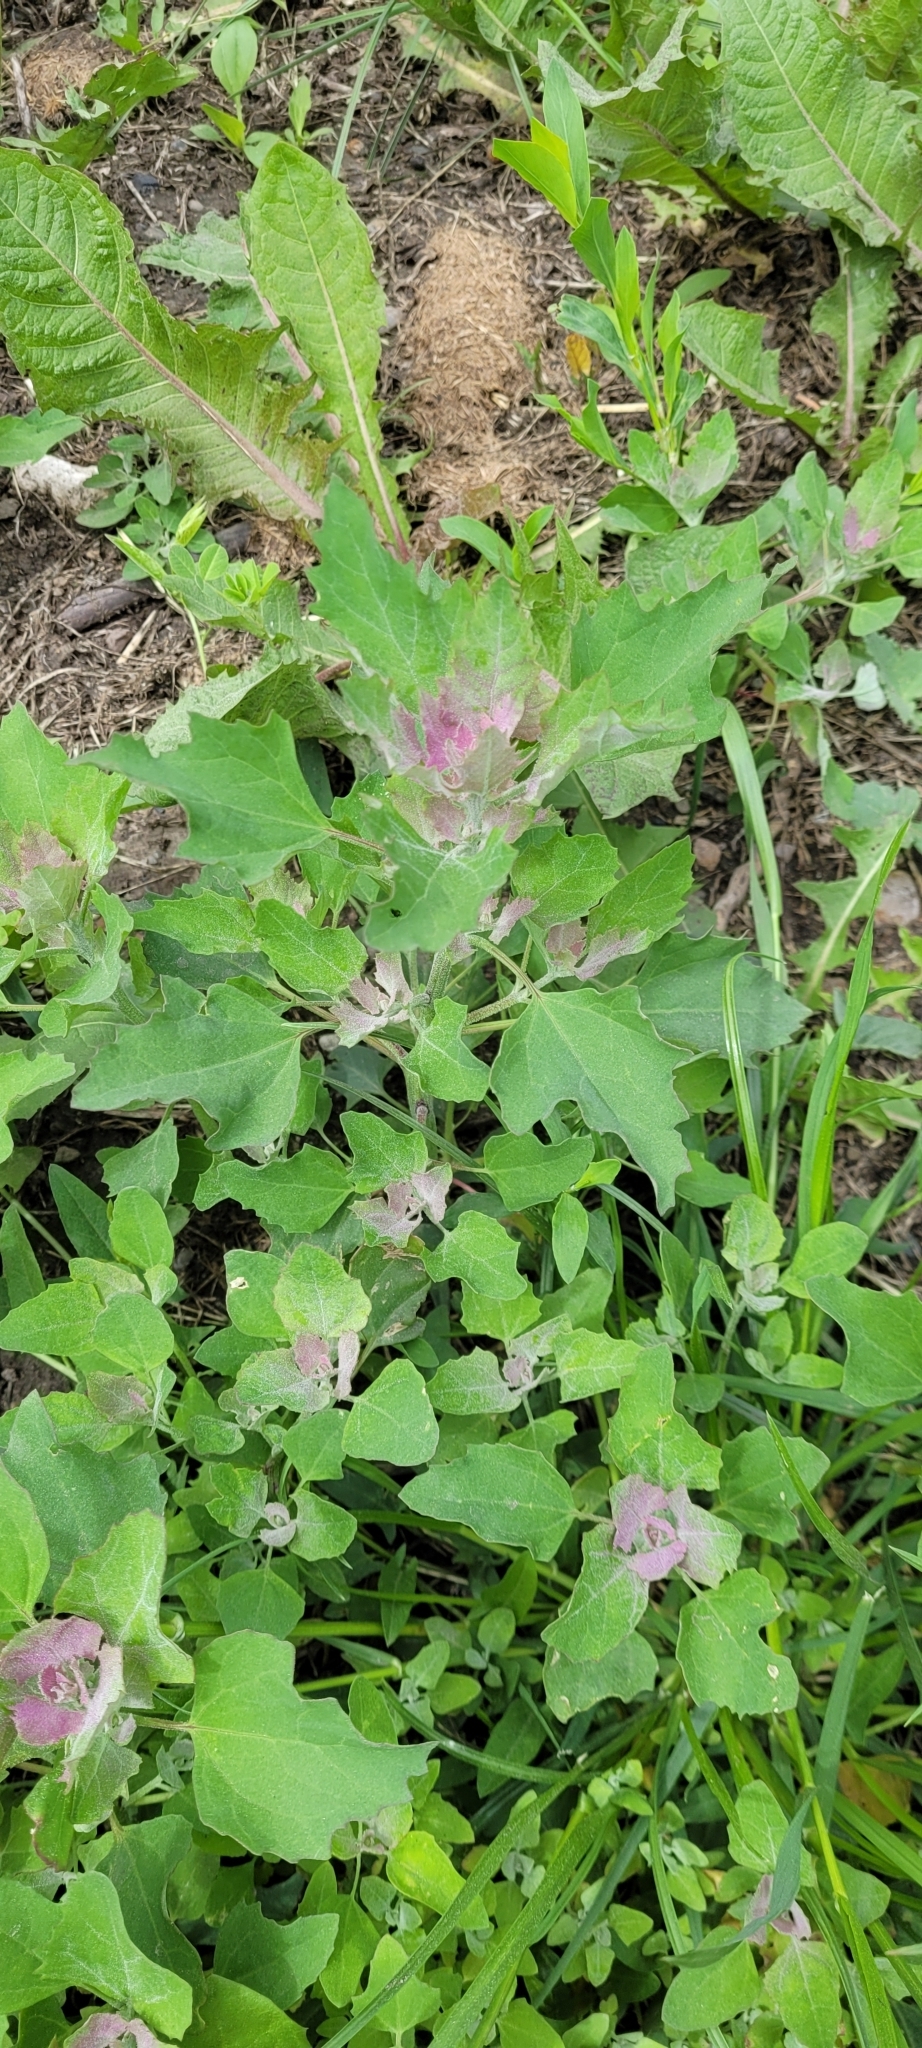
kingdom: Plantae
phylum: Tracheophyta
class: Magnoliopsida
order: Caryophyllales
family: Amaranthaceae
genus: Chenopodium
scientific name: Chenopodium album
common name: Fat-hen
